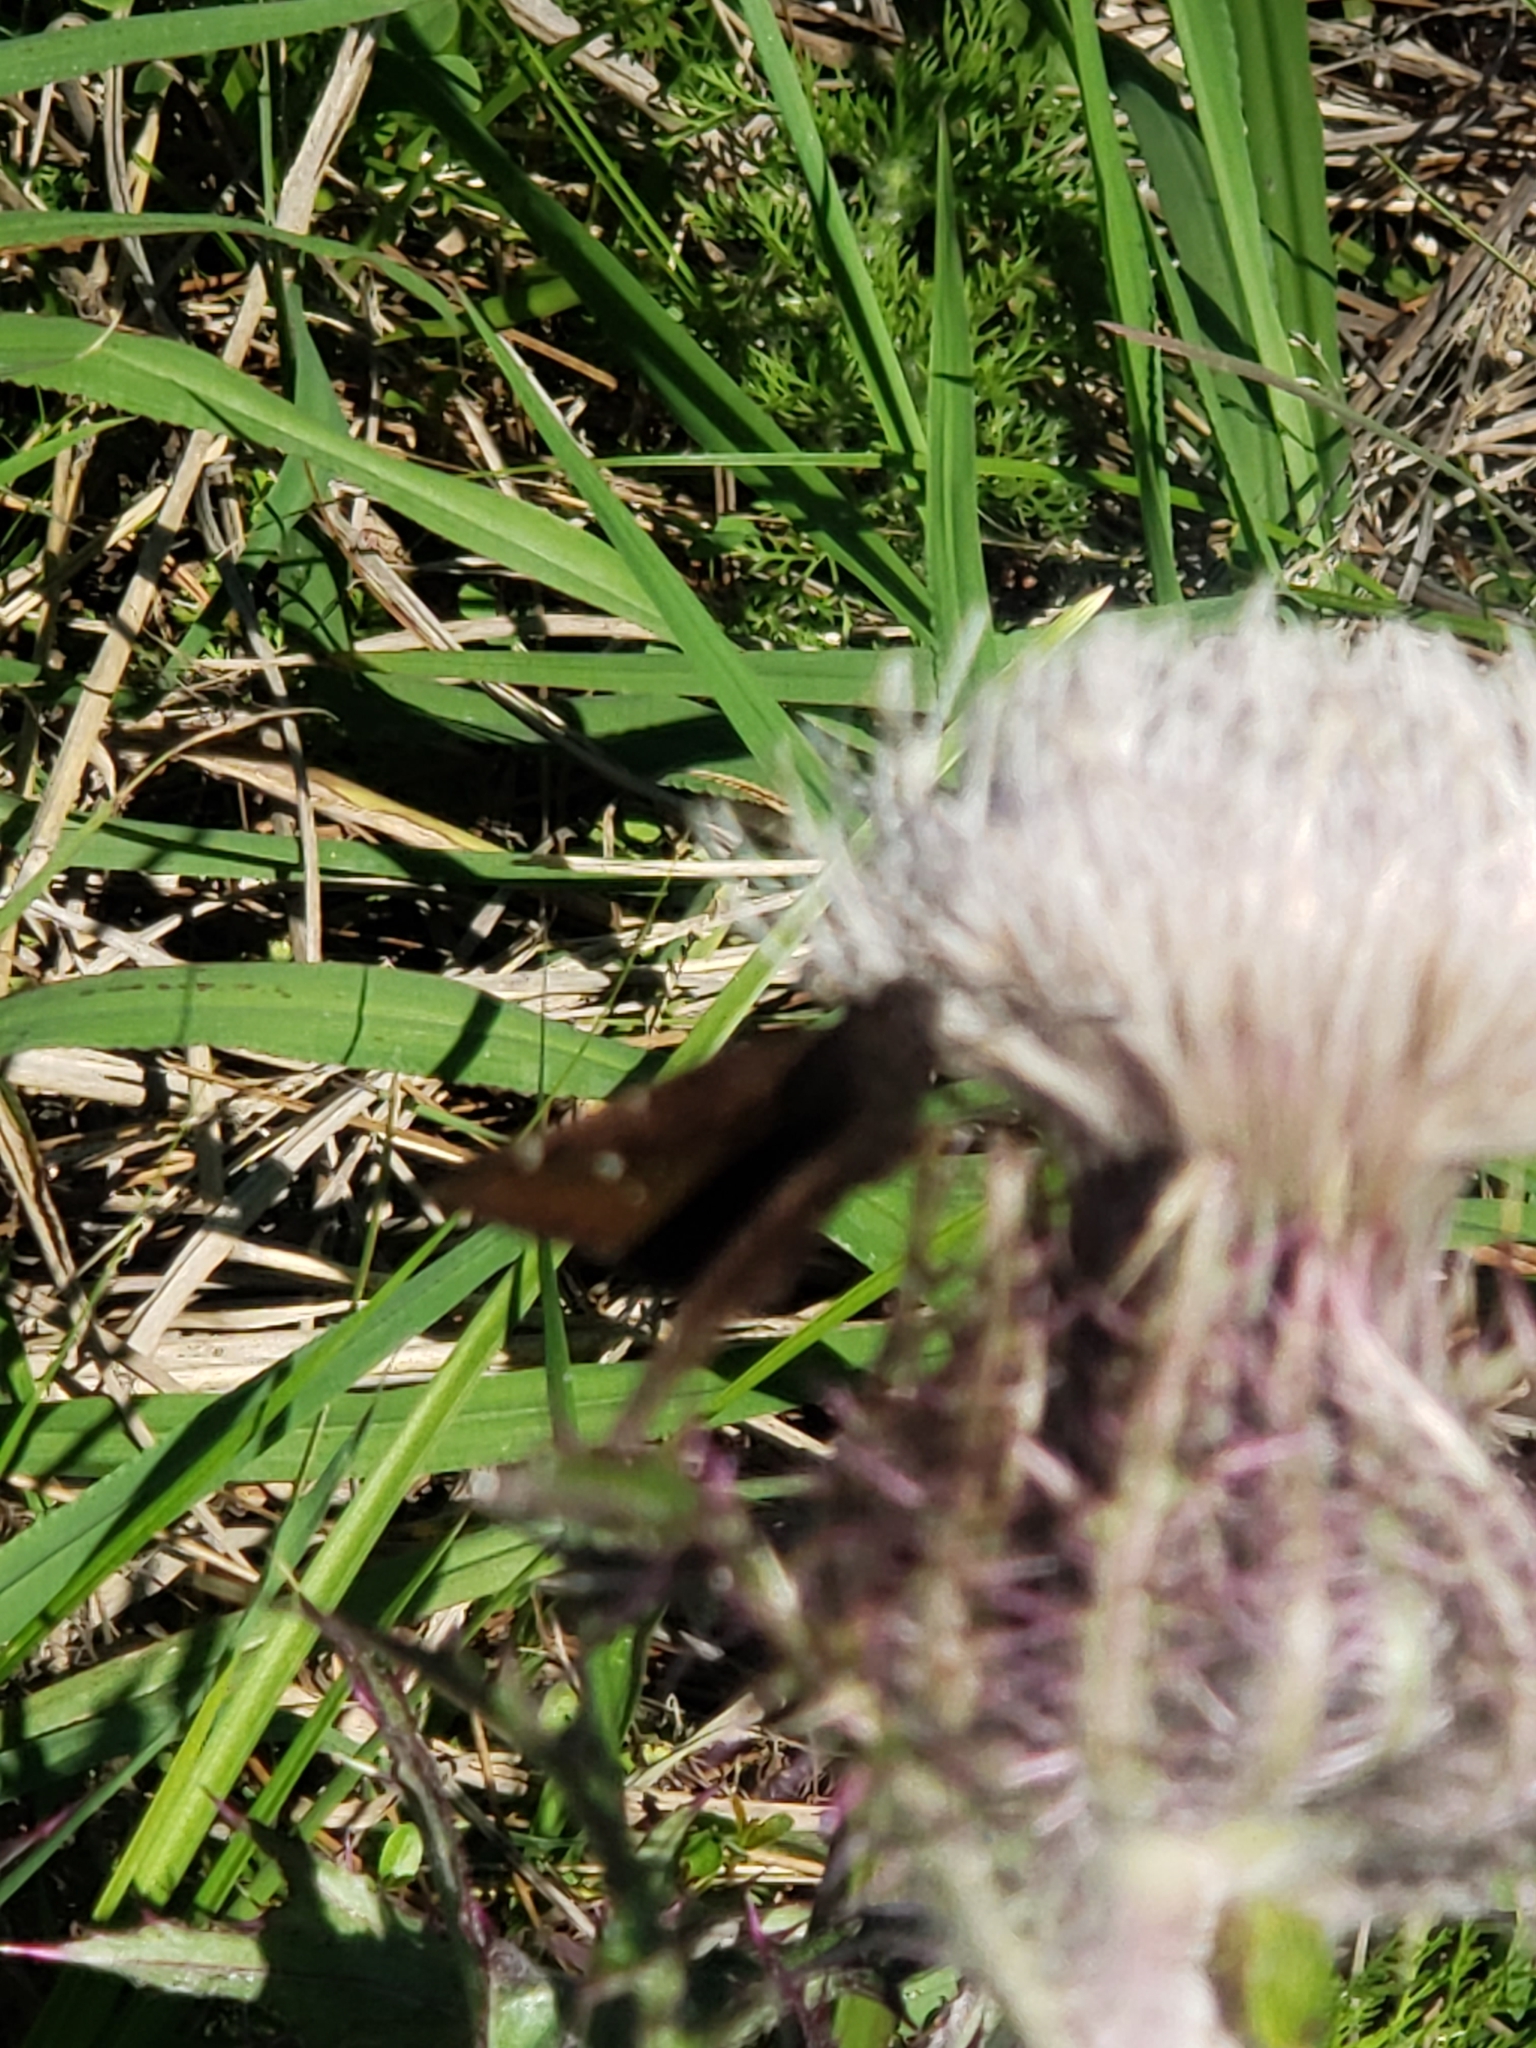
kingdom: Animalia
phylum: Arthropoda
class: Insecta
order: Lepidoptera
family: Hesperiidae
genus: Thorybes
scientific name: Thorybes pylades
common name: Northern cloudywing
